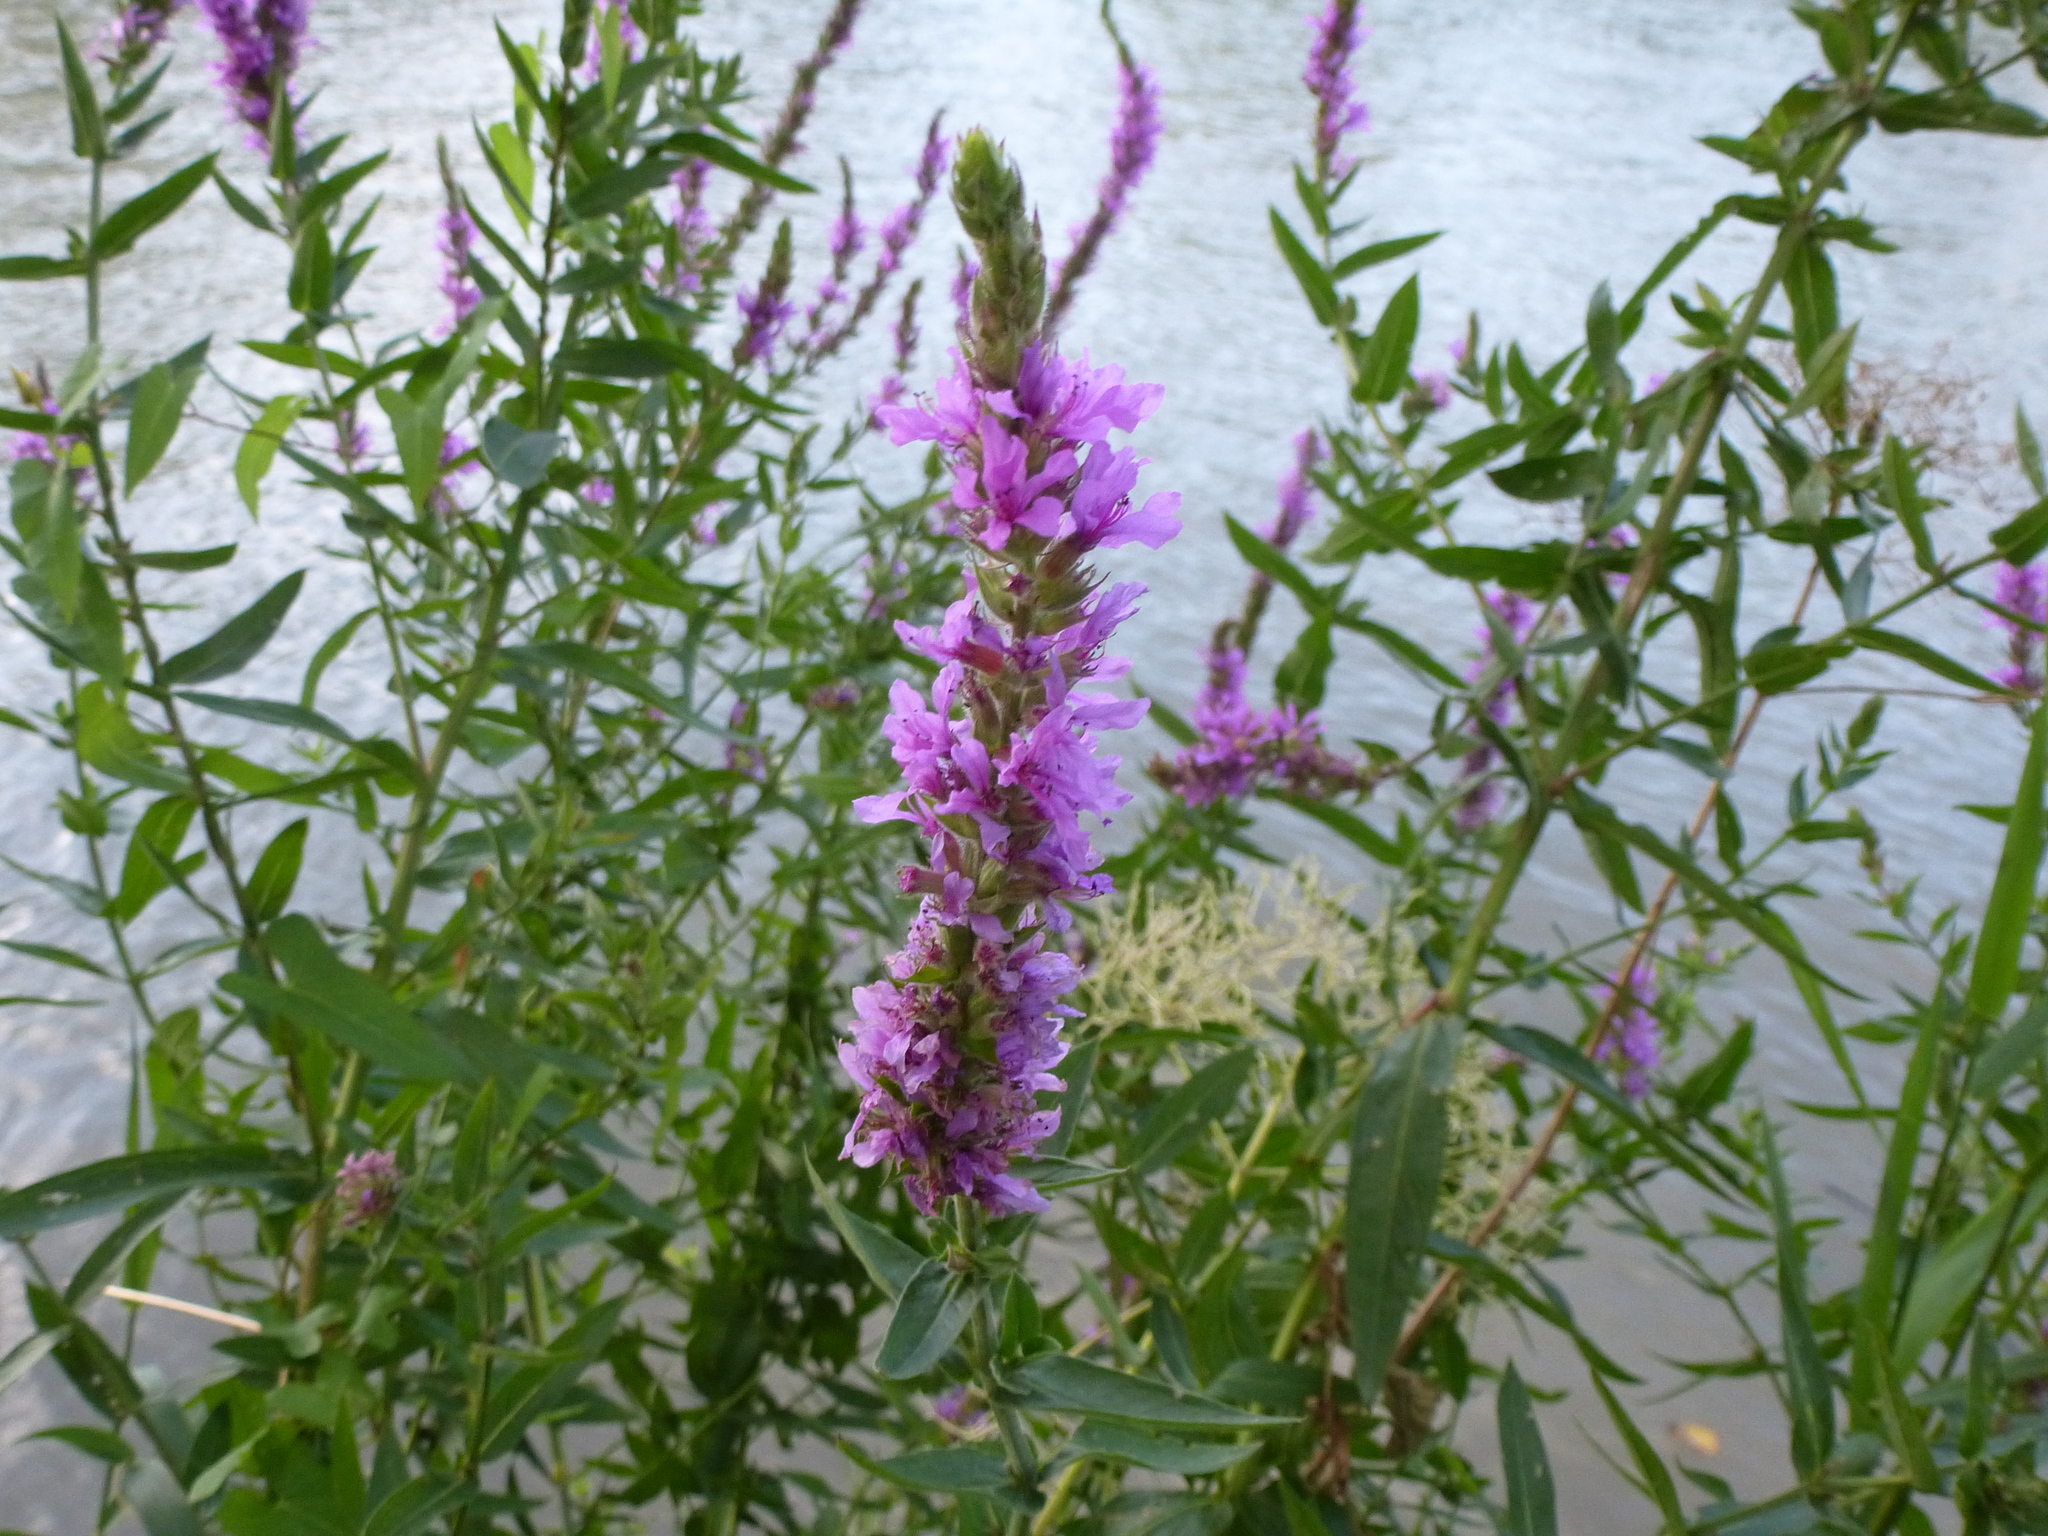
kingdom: Plantae
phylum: Tracheophyta
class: Magnoliopsida
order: Myrtales
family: Lythraceae
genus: Lythrum
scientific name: Lythrum salicaria
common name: Purple loosestrife
